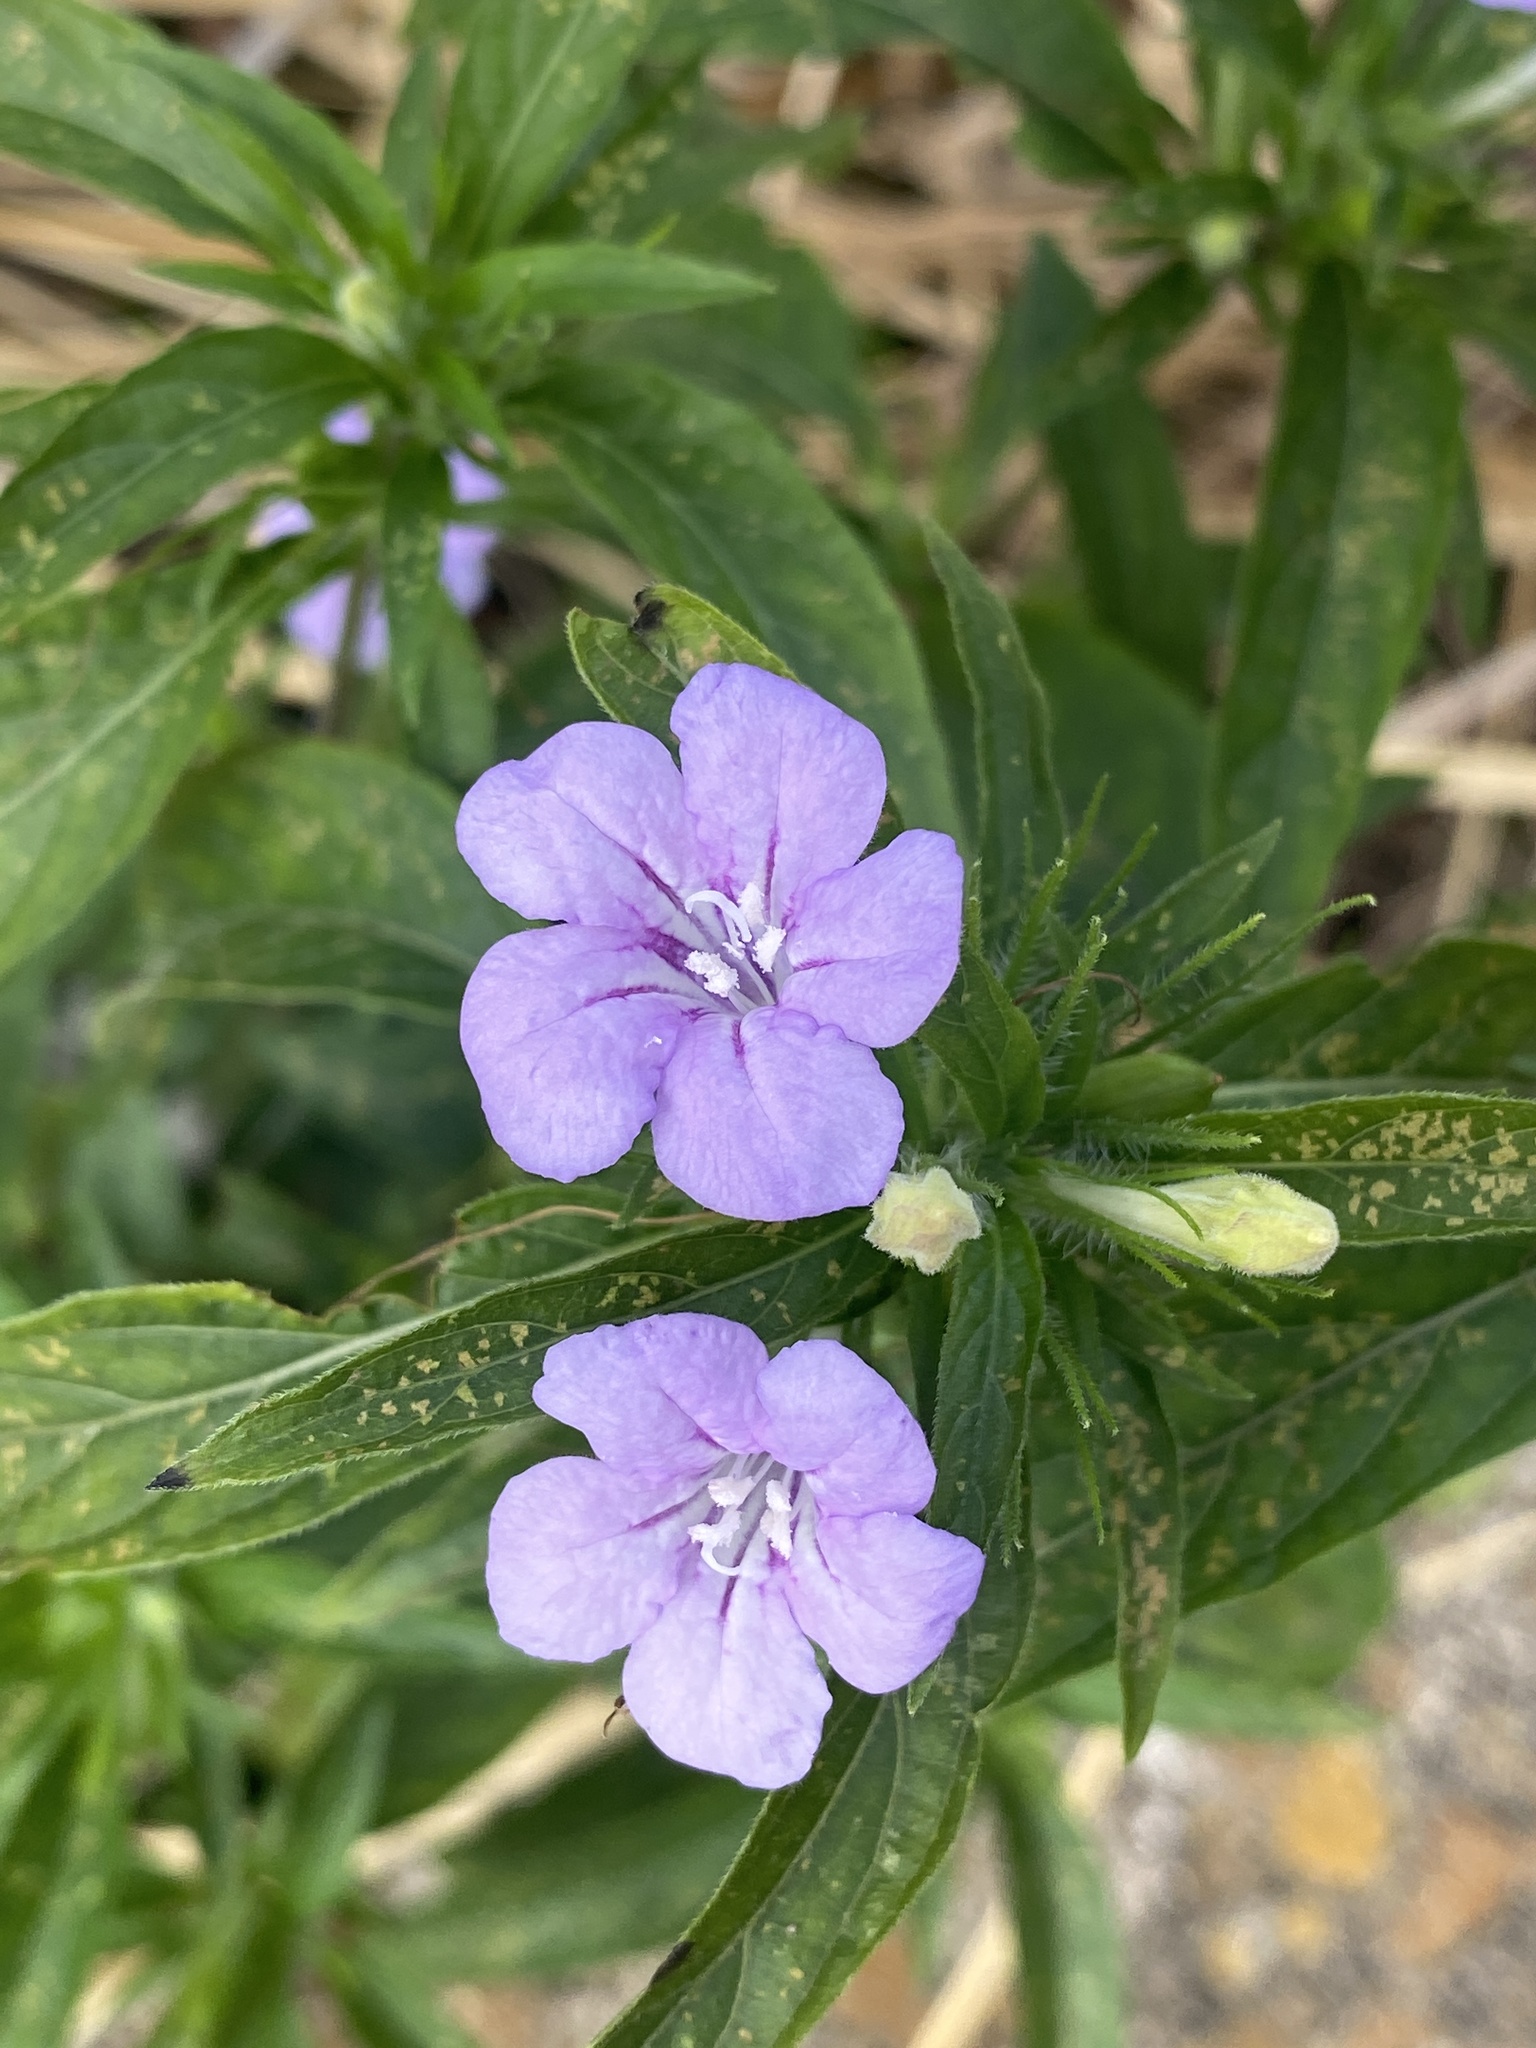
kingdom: Plantae
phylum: Tracheophyta
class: Magnoliopsida
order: Lamiales
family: Acanthaceae
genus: Ruellia
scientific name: Ruellia caroliniensis
